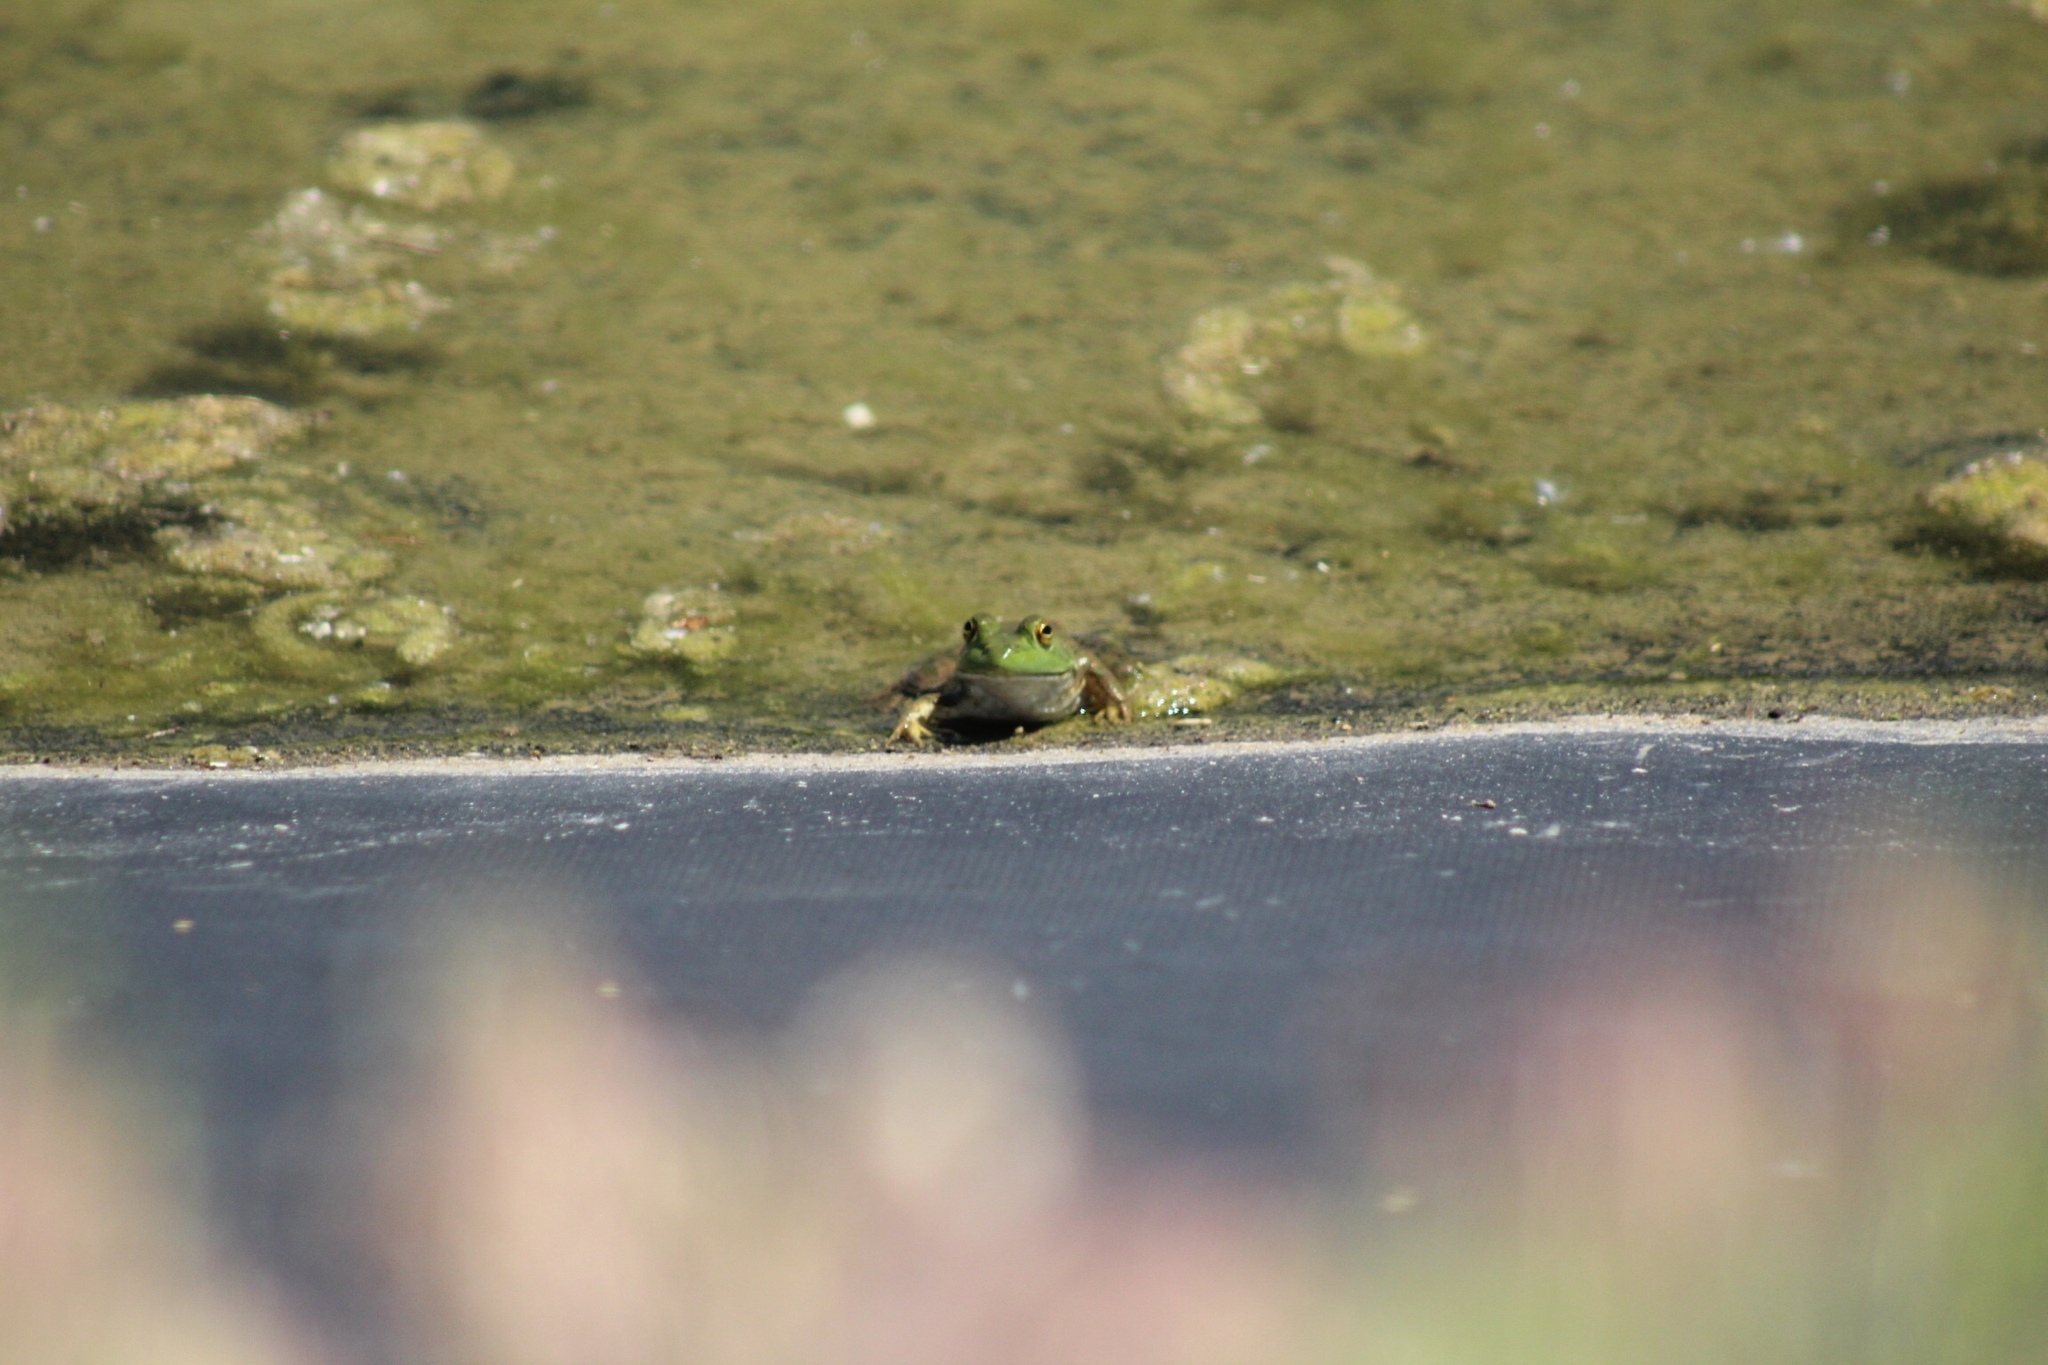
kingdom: Animalia
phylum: Chordata
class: Amphibia
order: Anura
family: Ranidae
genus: Lithobates
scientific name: Lithobates catesbeianus
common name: American bullfrog
